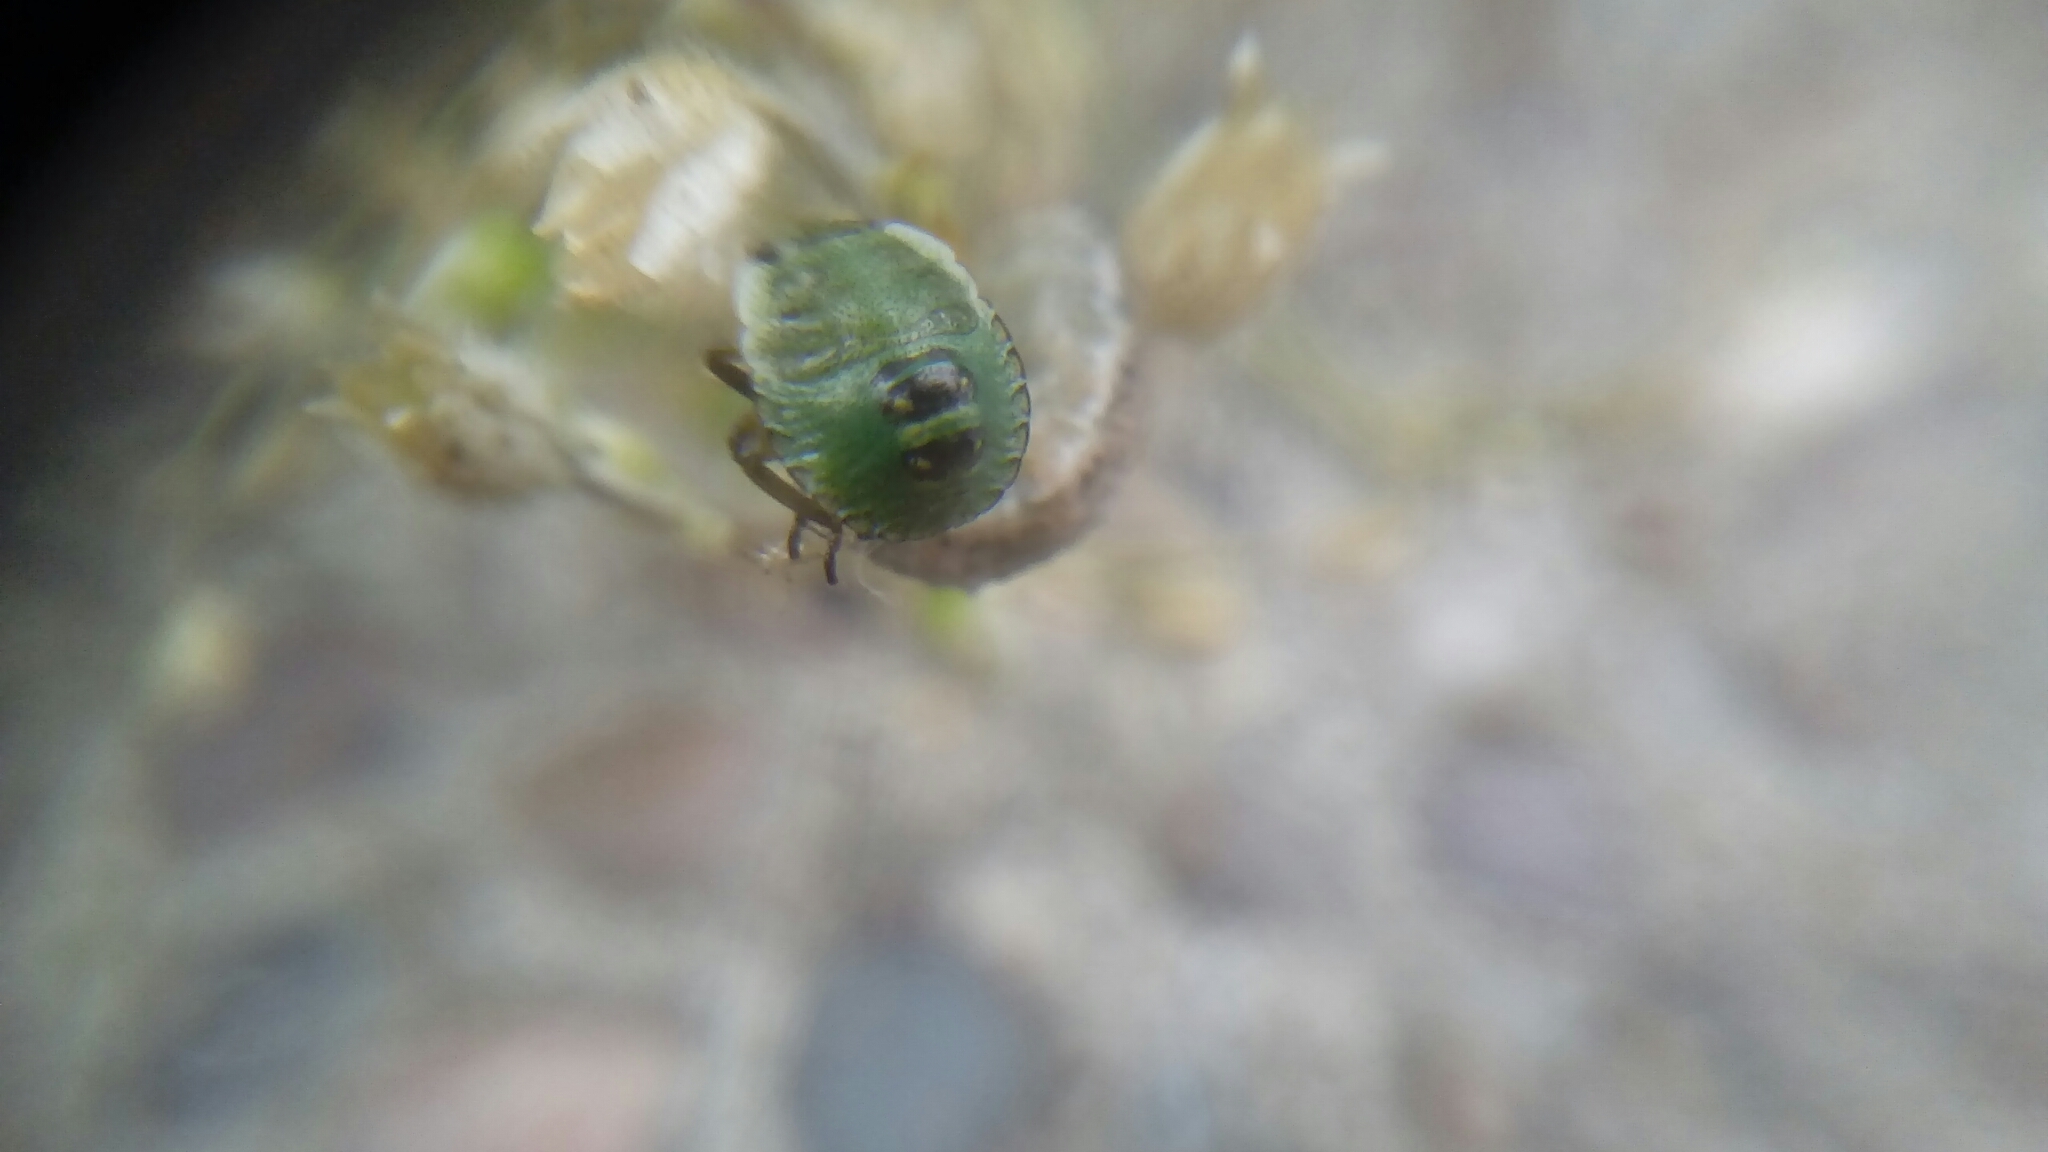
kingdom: Animalia
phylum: Arthropoda
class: Insecta
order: Hemiptera
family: Pentatomidae
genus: Palomena
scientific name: Palomena prasina
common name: Green shieldbug
